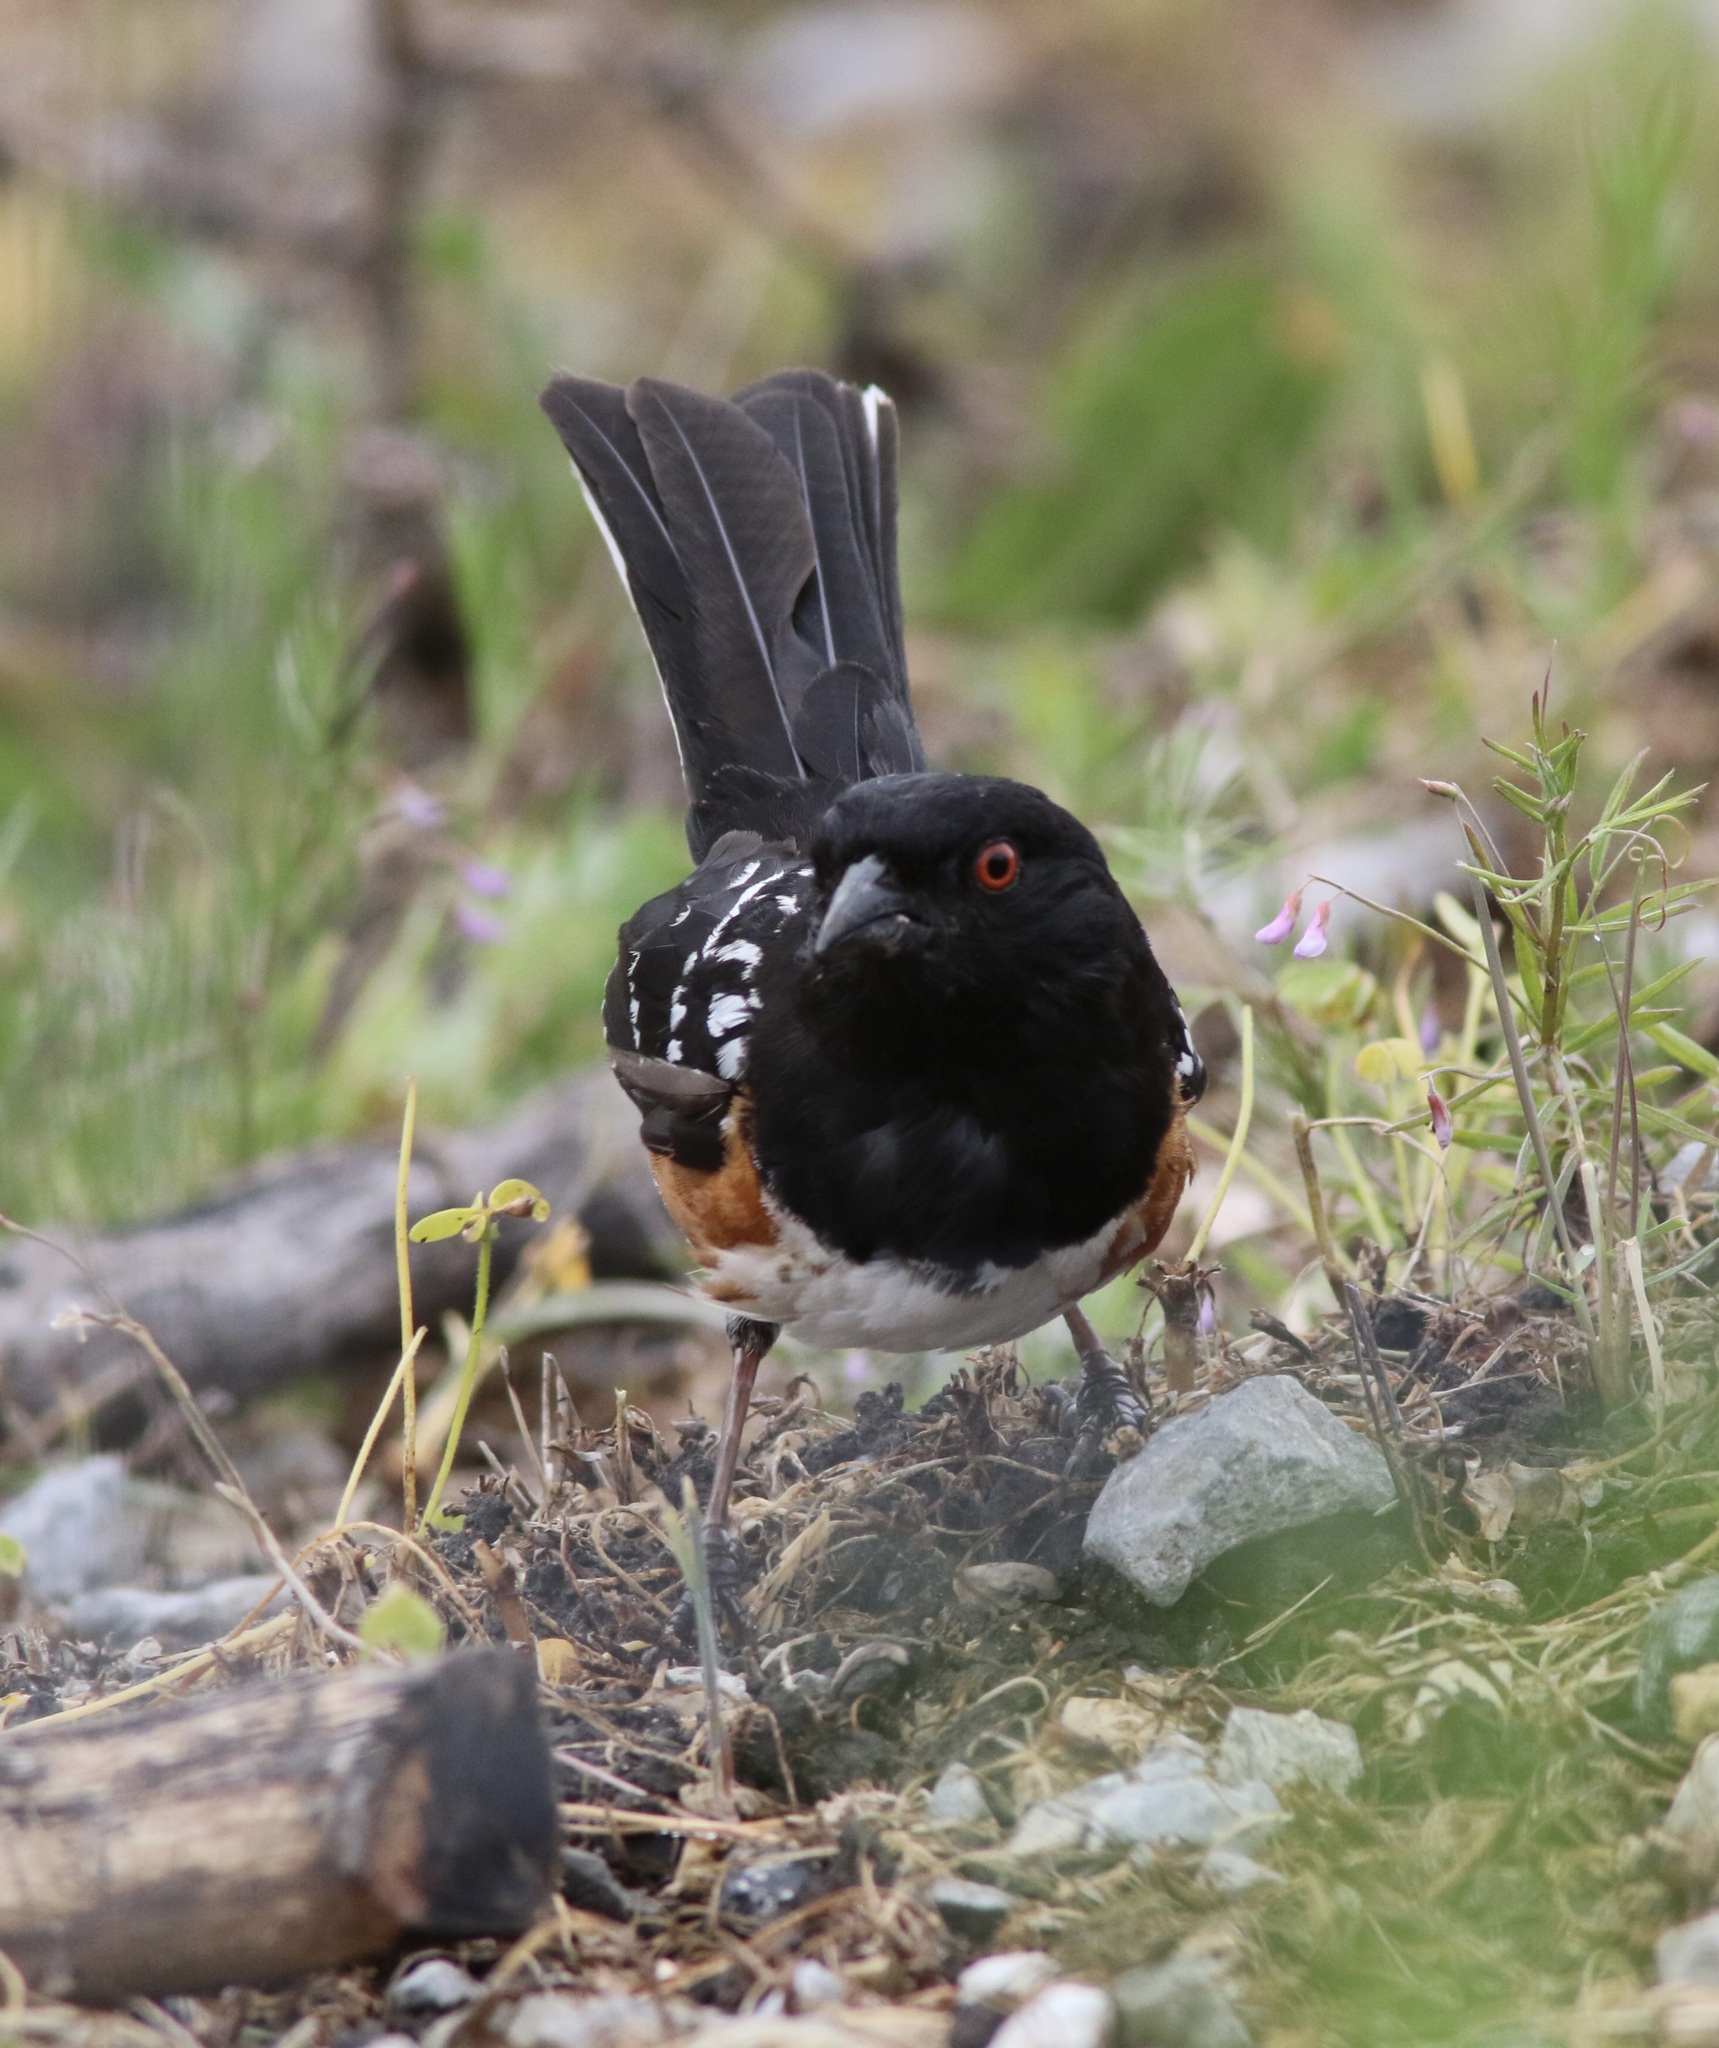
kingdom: Animalia
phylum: Chordata
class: Aves
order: Passeriformes
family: Passerellidae
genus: Pipilo
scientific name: Pipilo maculatus
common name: Spotted towhee
